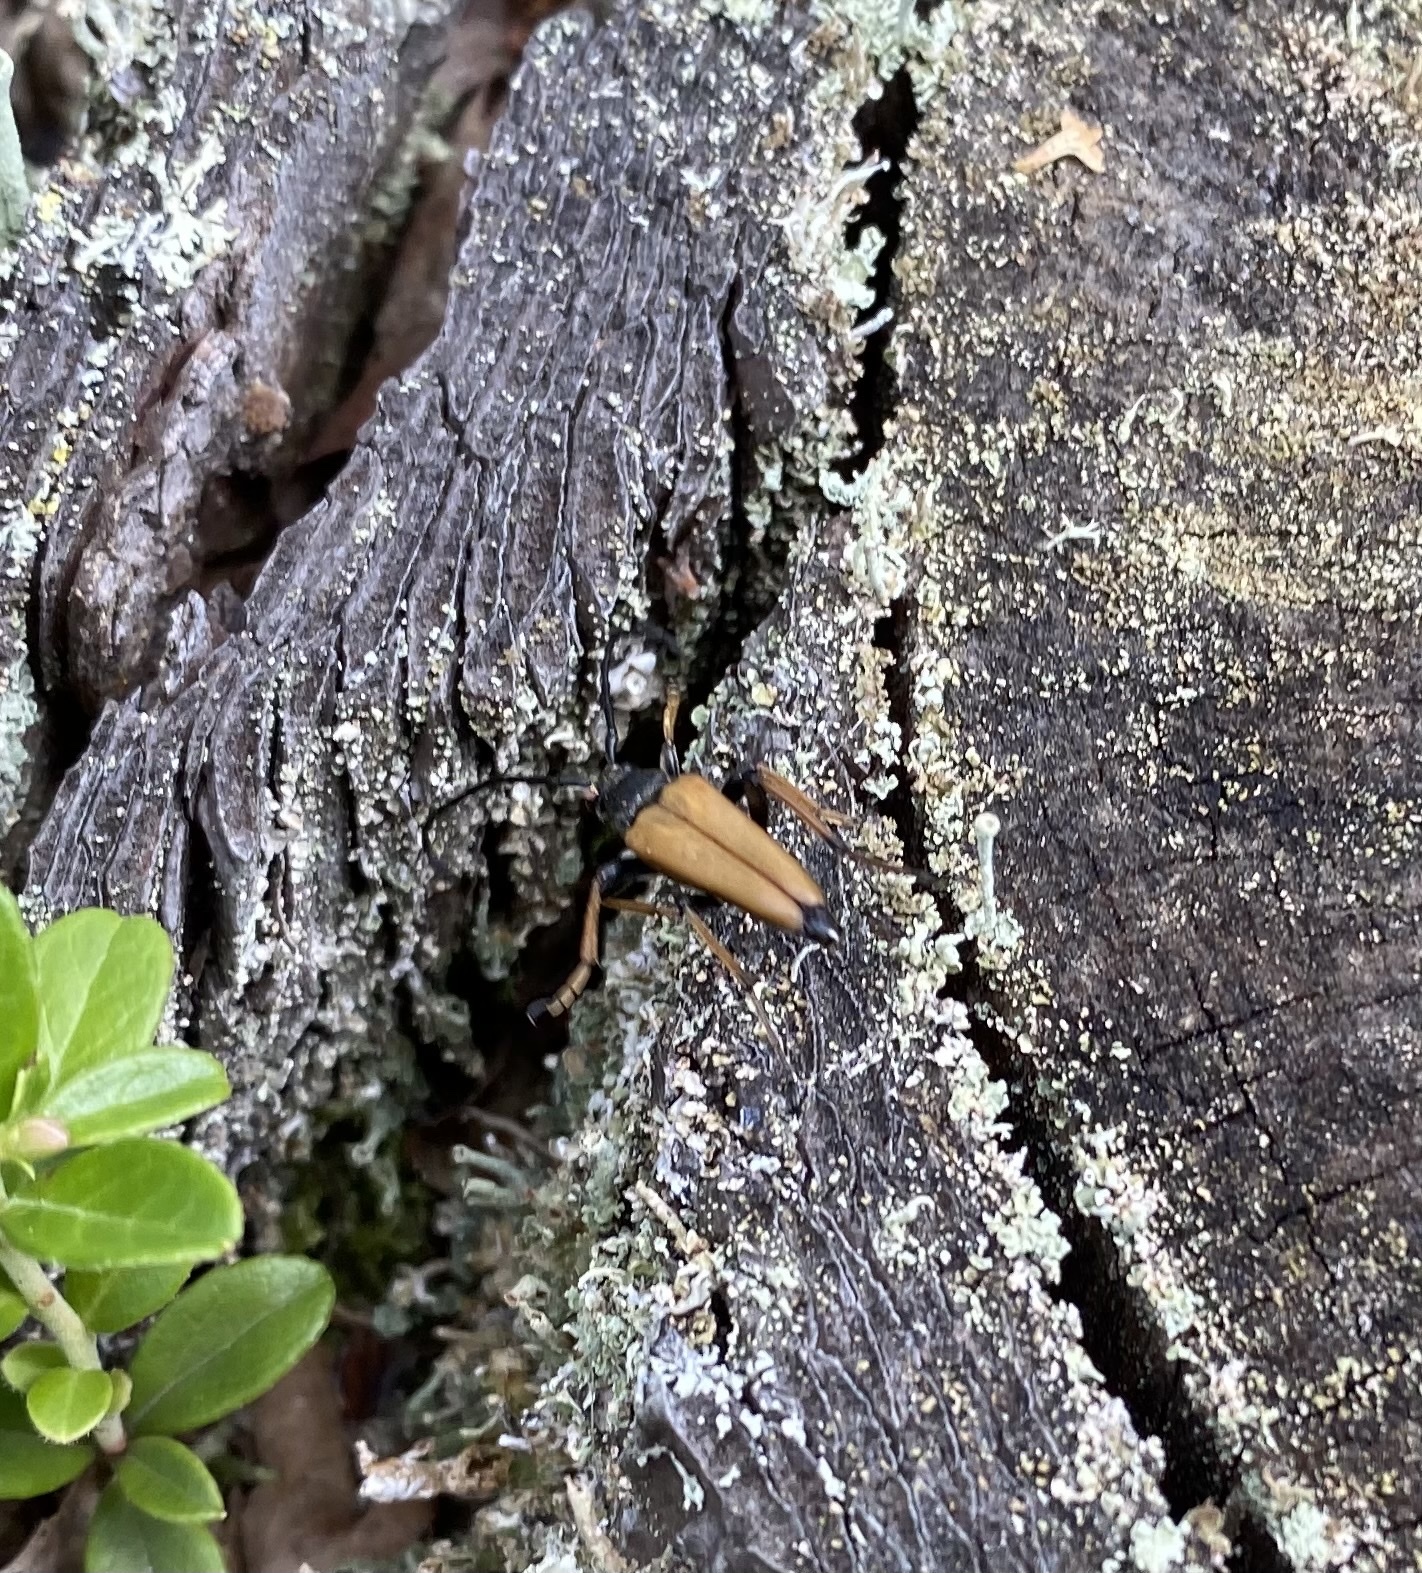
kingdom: Animalia
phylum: Arthropoda
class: Insecta
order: Coleoptera
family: Cerambycidae
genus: Stictoleptura
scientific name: Stictoleptura rubra
